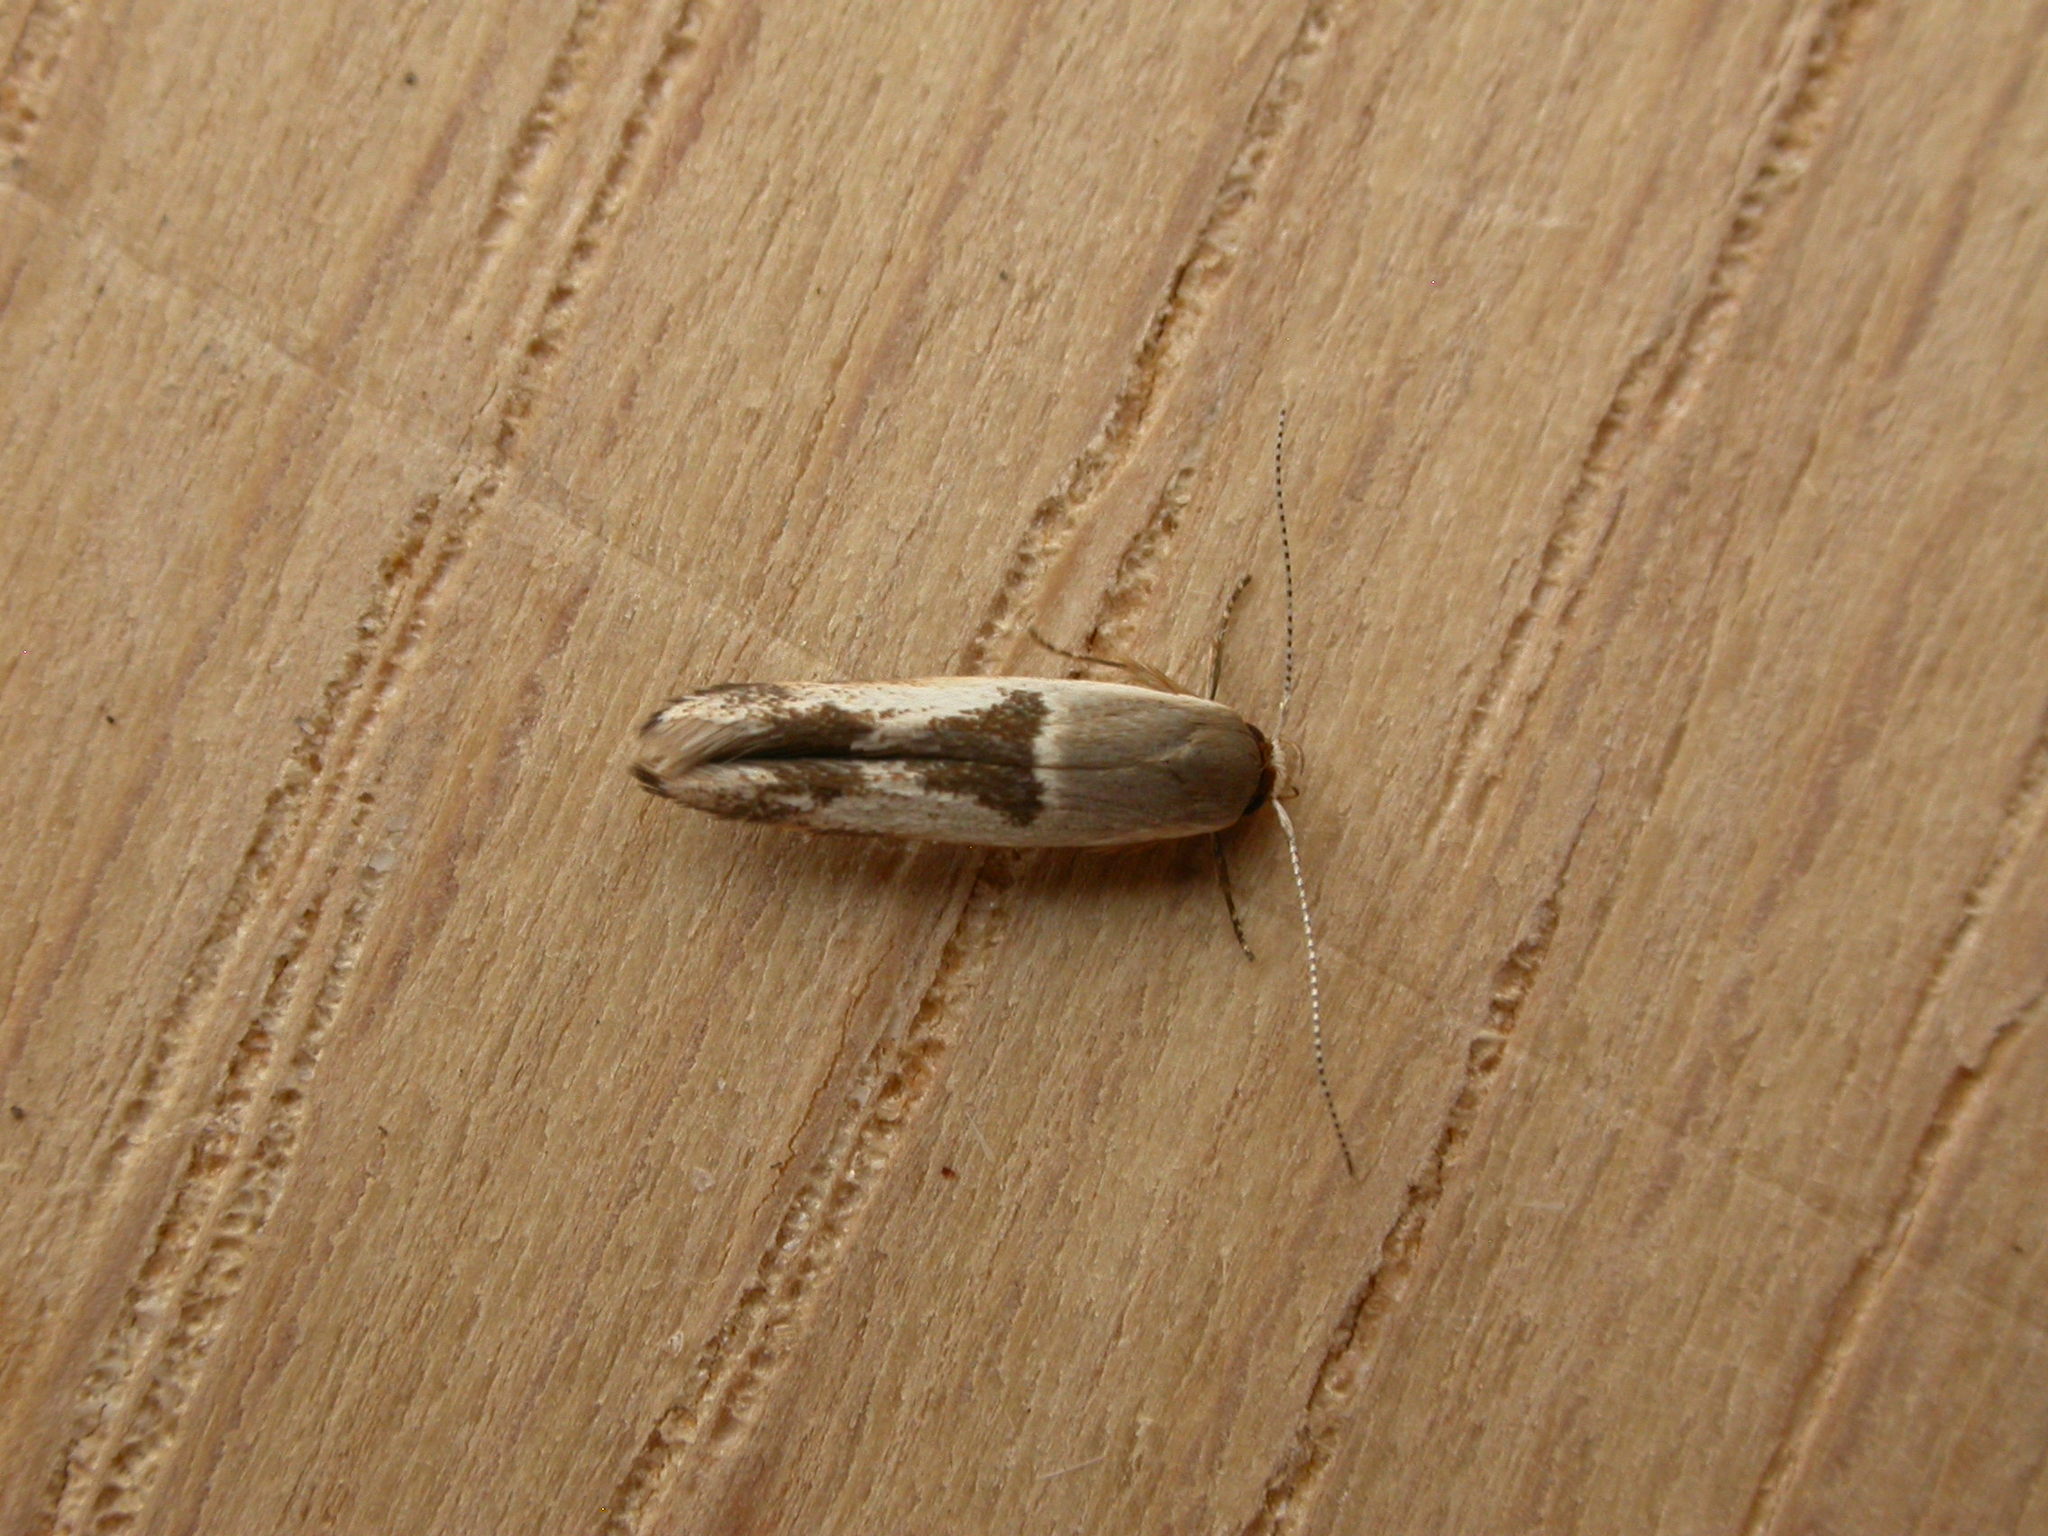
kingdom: Animalia
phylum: Arthropoda
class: Insecta
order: Lepidoptera
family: Stathmopodidae
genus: Stathmopoda
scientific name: Stathmopoda megathyma
